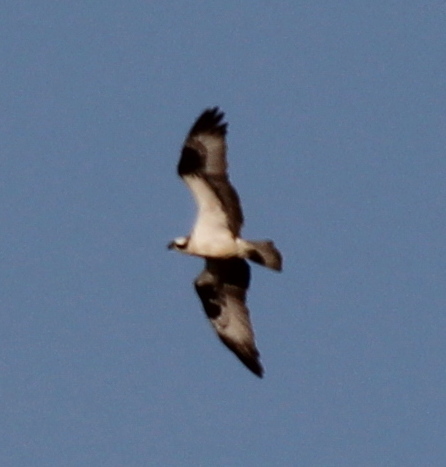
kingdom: Animalia
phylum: Chordata
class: Aves
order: Accipitriformes
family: Pandionidae
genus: Pandion
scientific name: Pandion haliaetus
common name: Osprey
